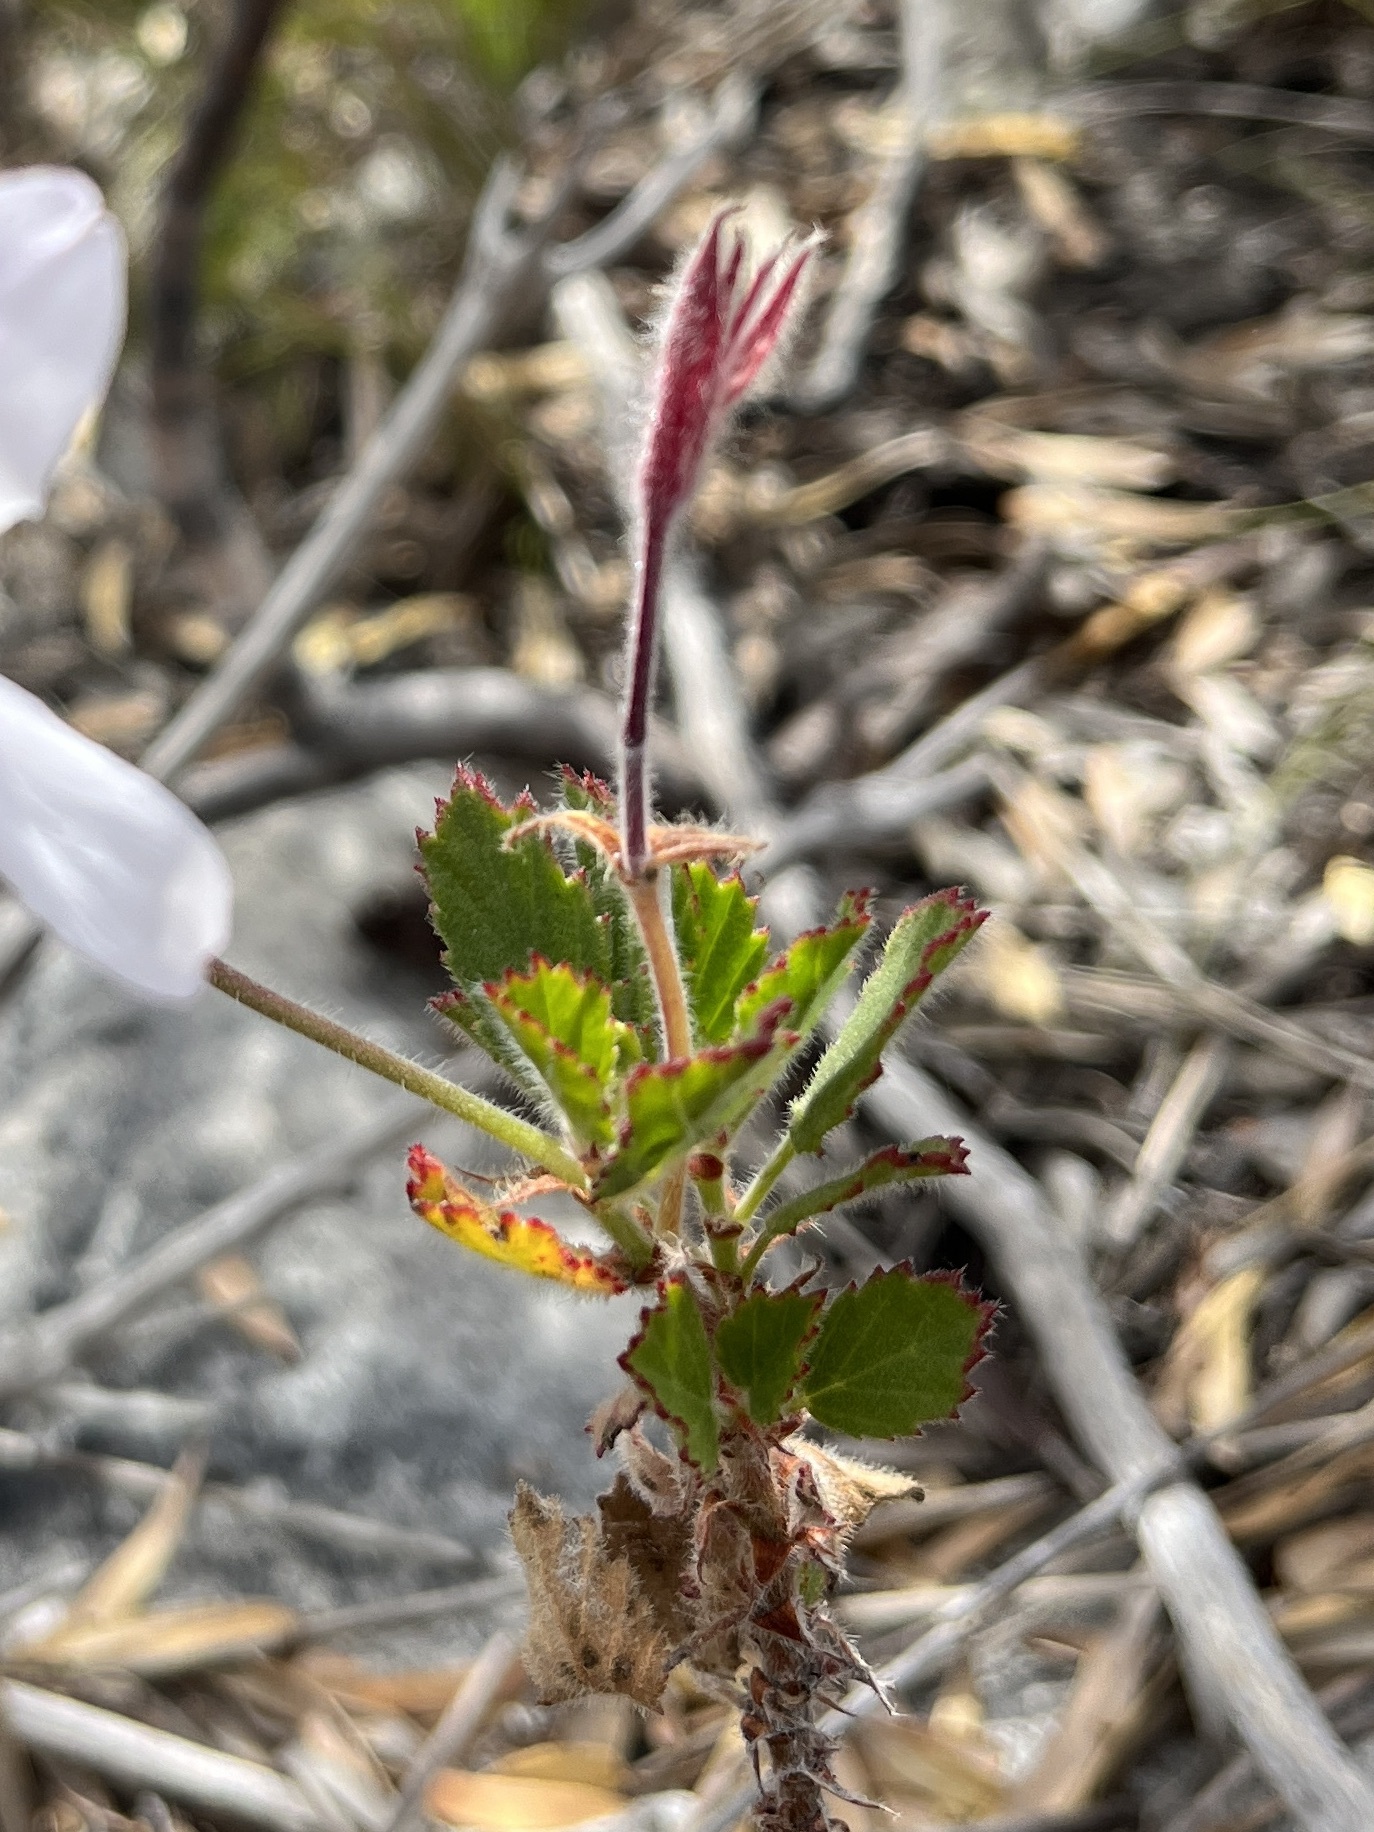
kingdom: Plantae
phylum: Tracheophyta
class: Magnoliopsida
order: Geraniales
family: Geraniaceae
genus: Pelargonium
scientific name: Pelargonium betulinum
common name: Birch-leaf pelargonium
